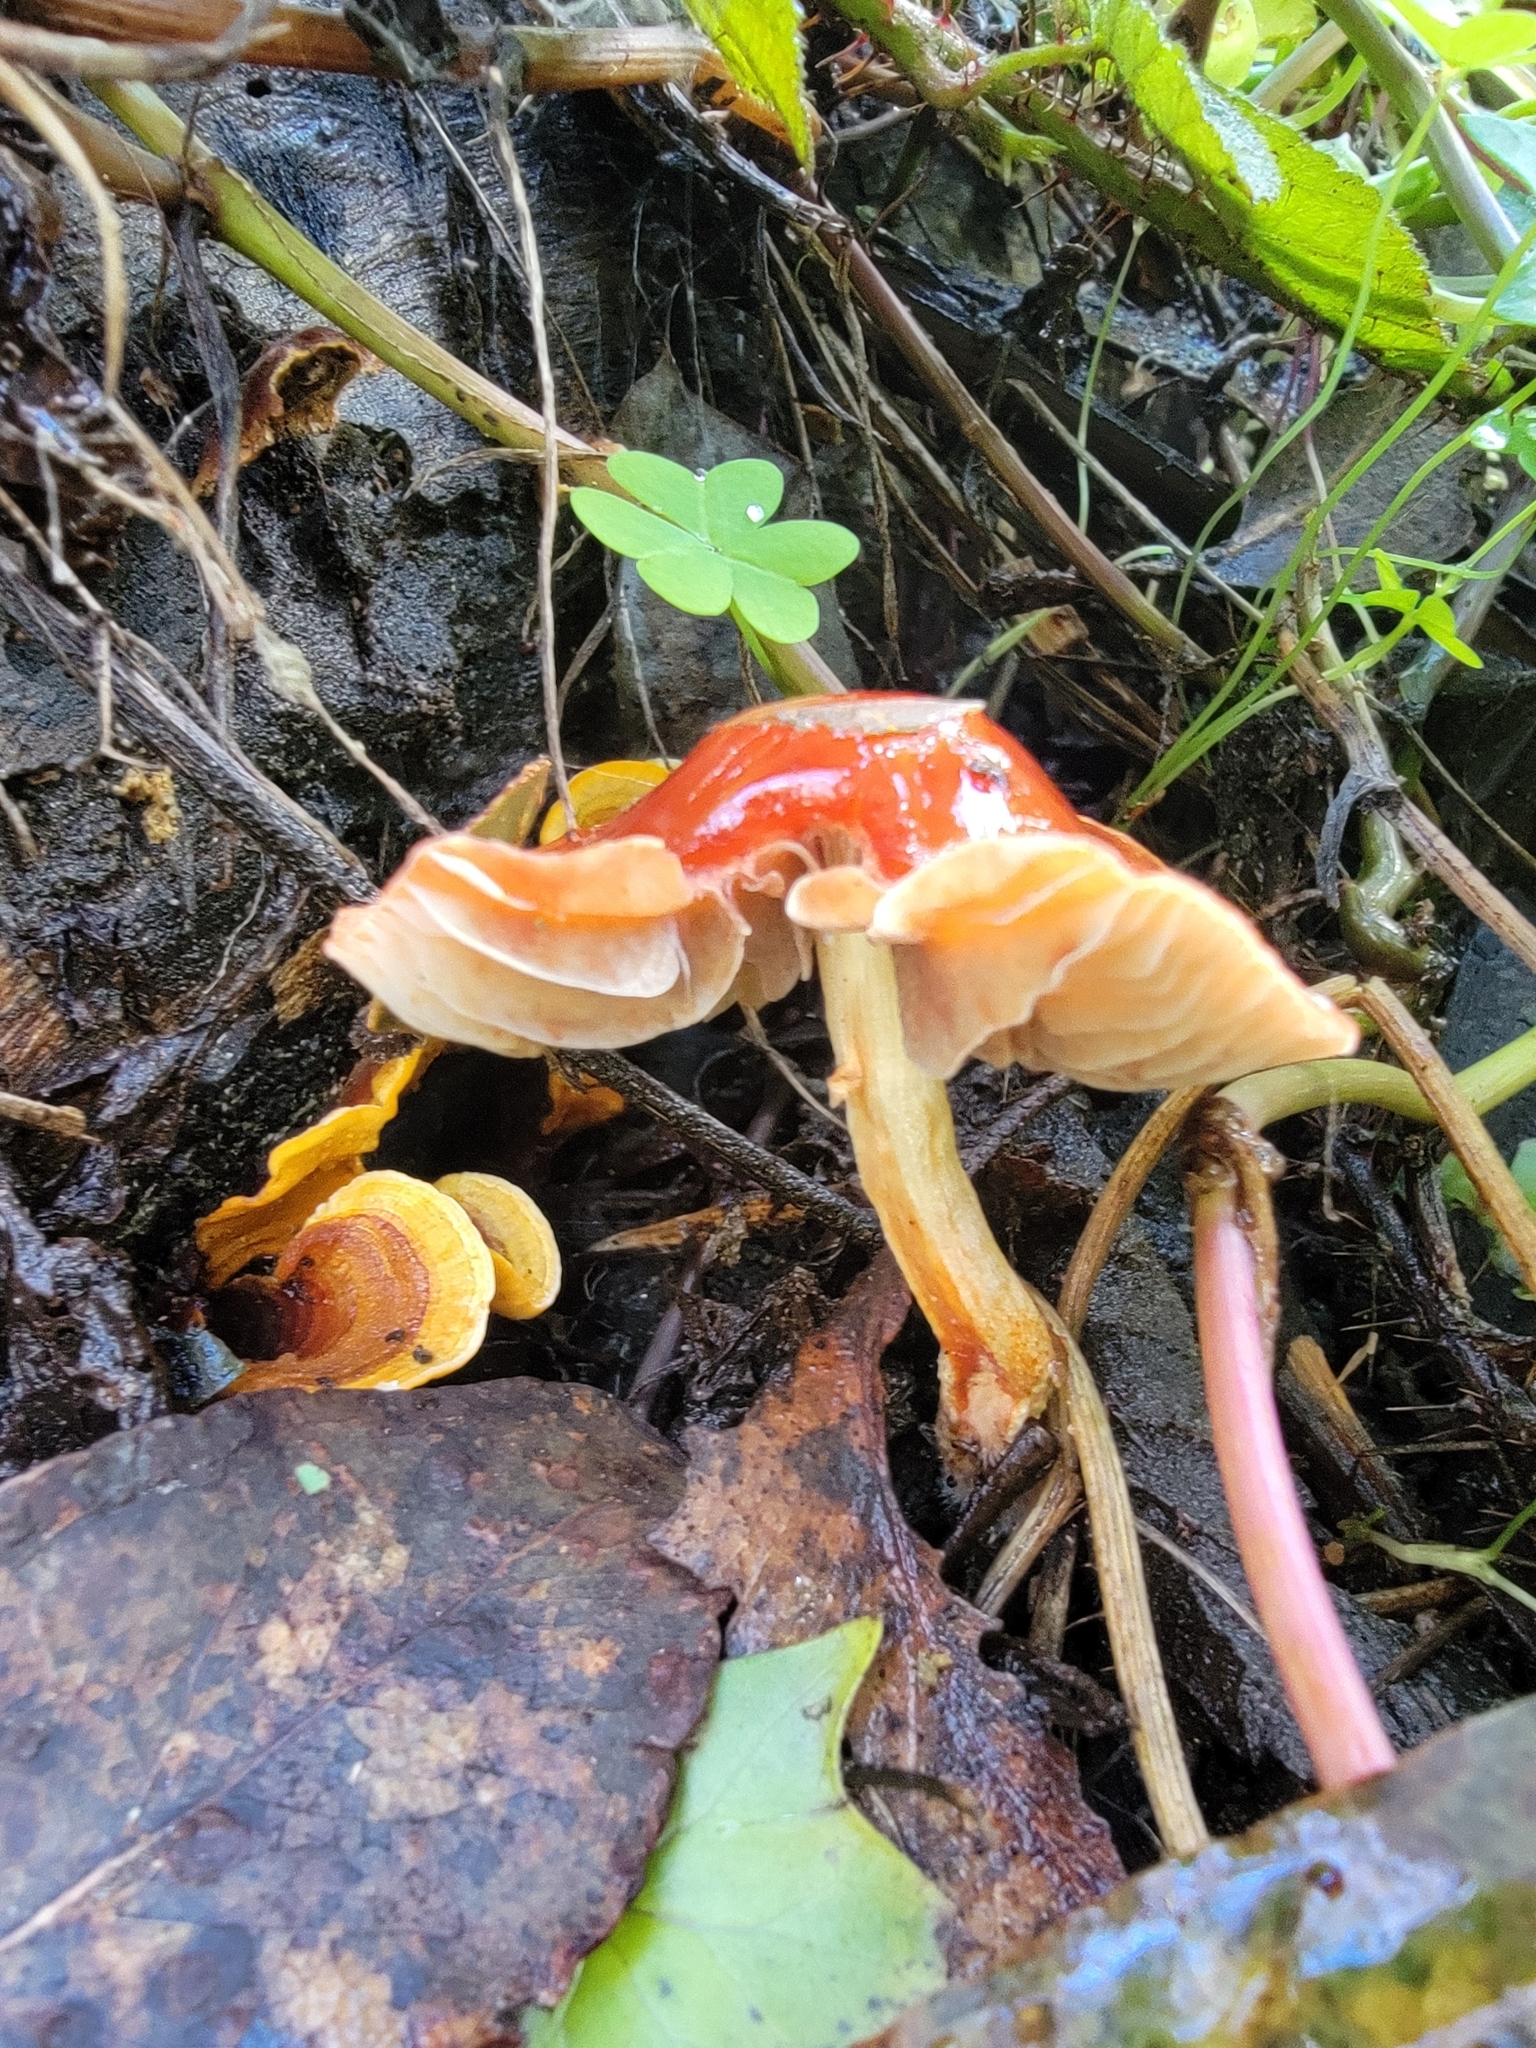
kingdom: Fungi
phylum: Basidiomycota
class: Agaricomycetes
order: Agaricales
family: Strophariaceae
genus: Leratiomyces
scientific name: Leratiomyces ceres
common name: Redlead roundhead
